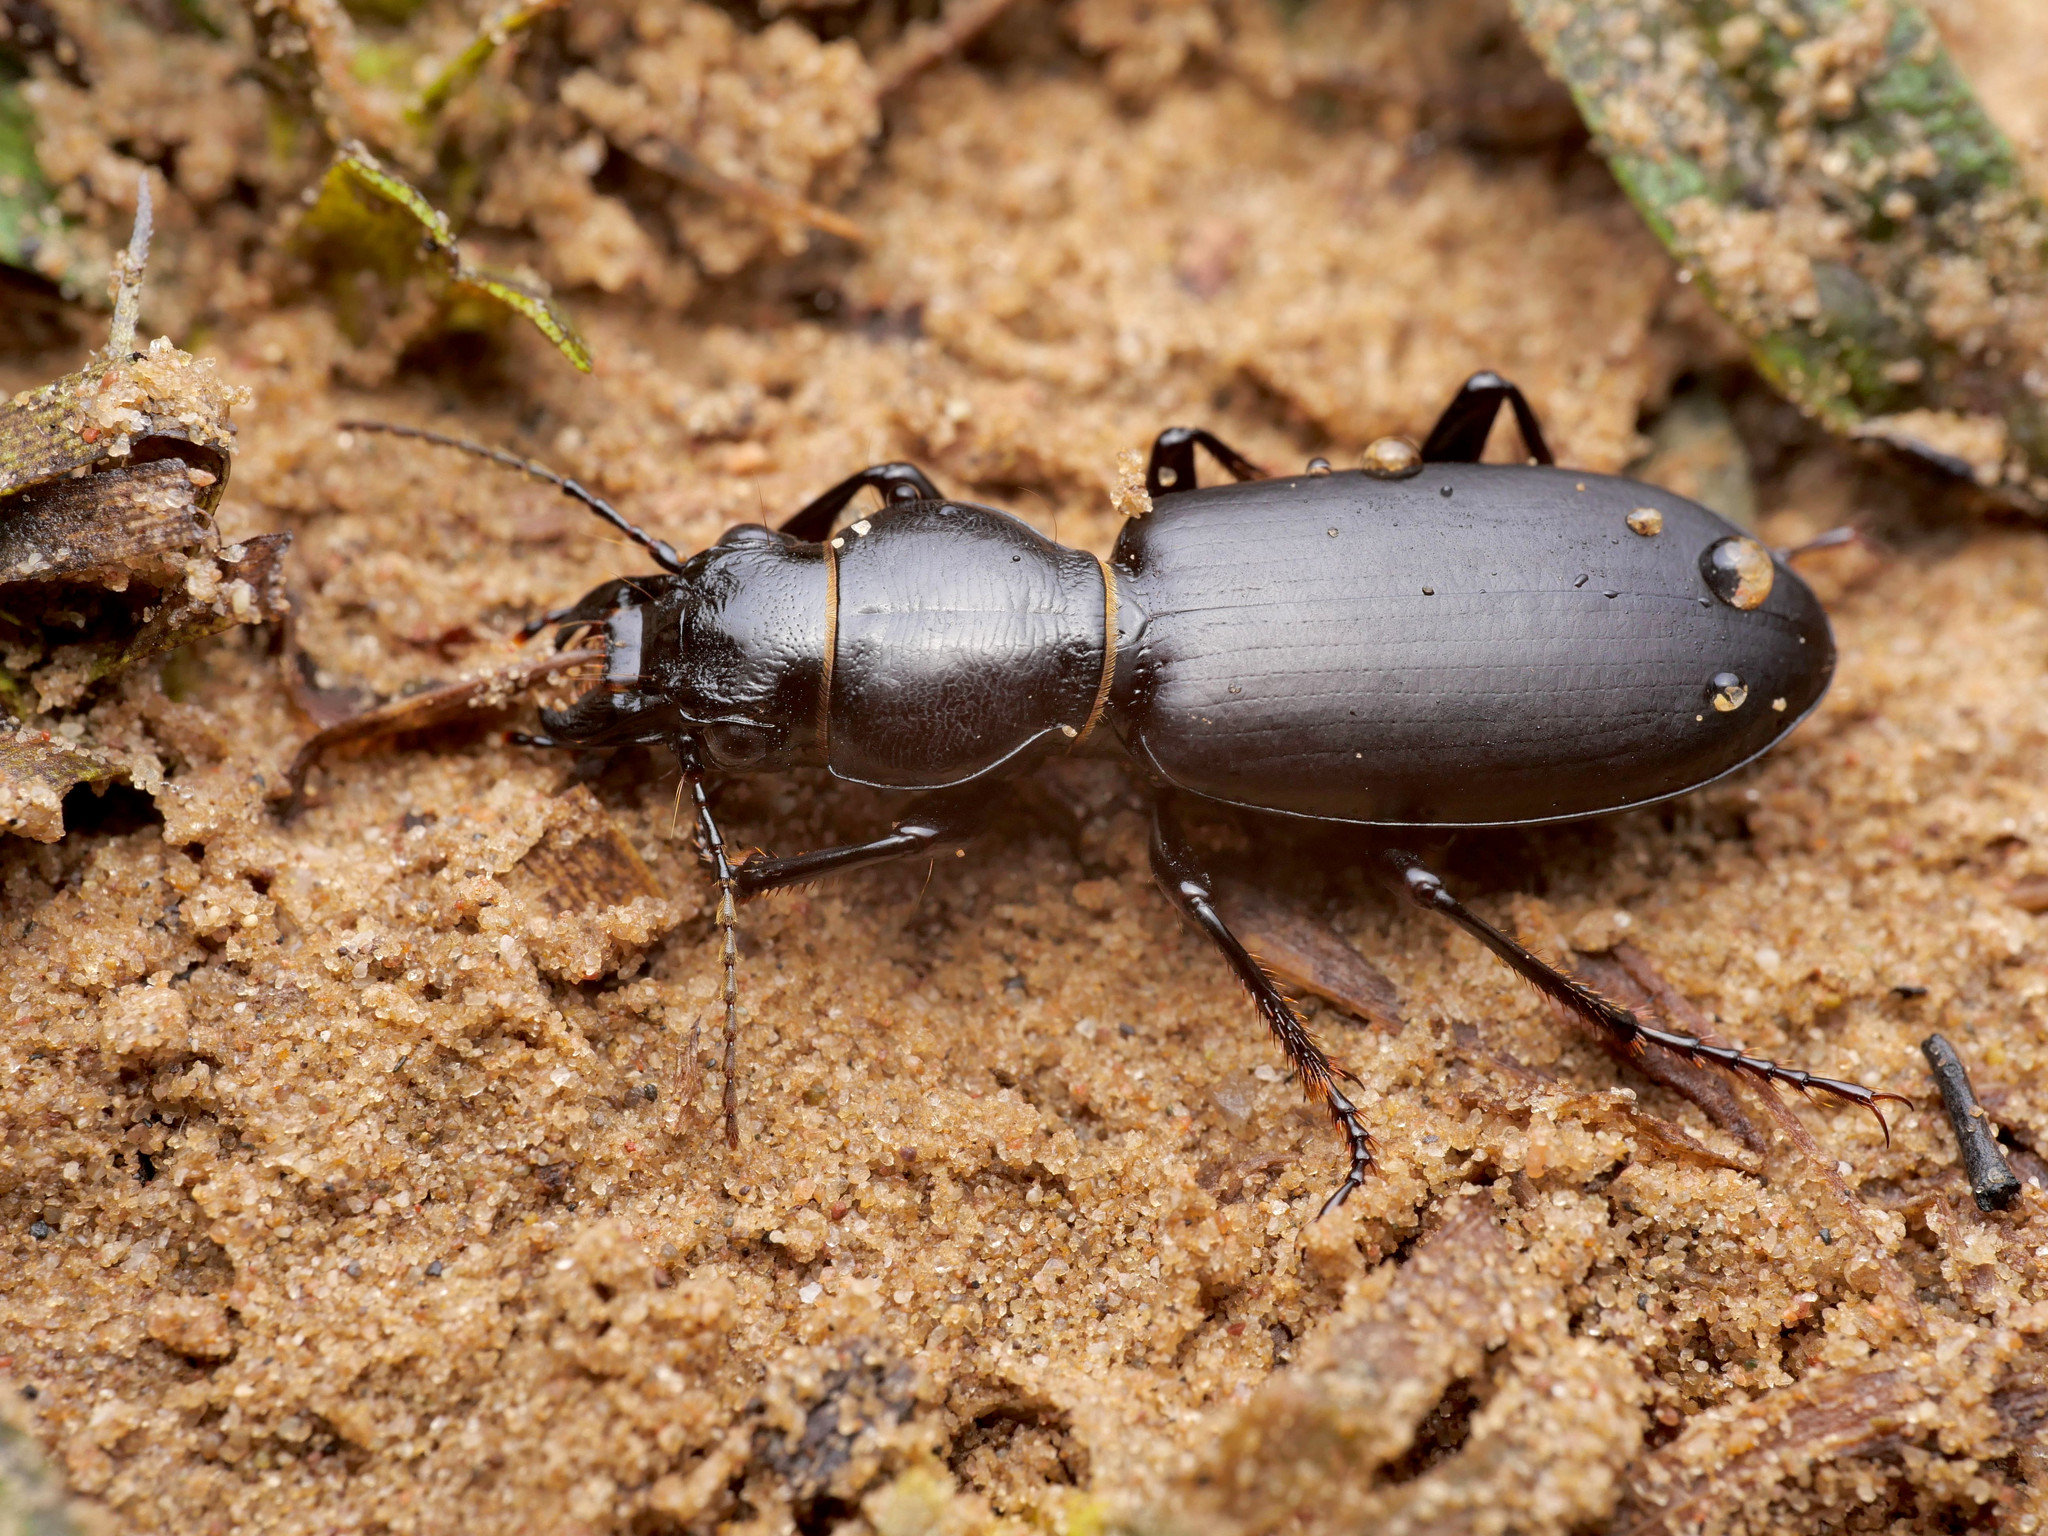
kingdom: Animalia
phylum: Arthropoda
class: Insecta
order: Coleoptera
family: Carabidae
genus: Broscus
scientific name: Broscus cephalotes
